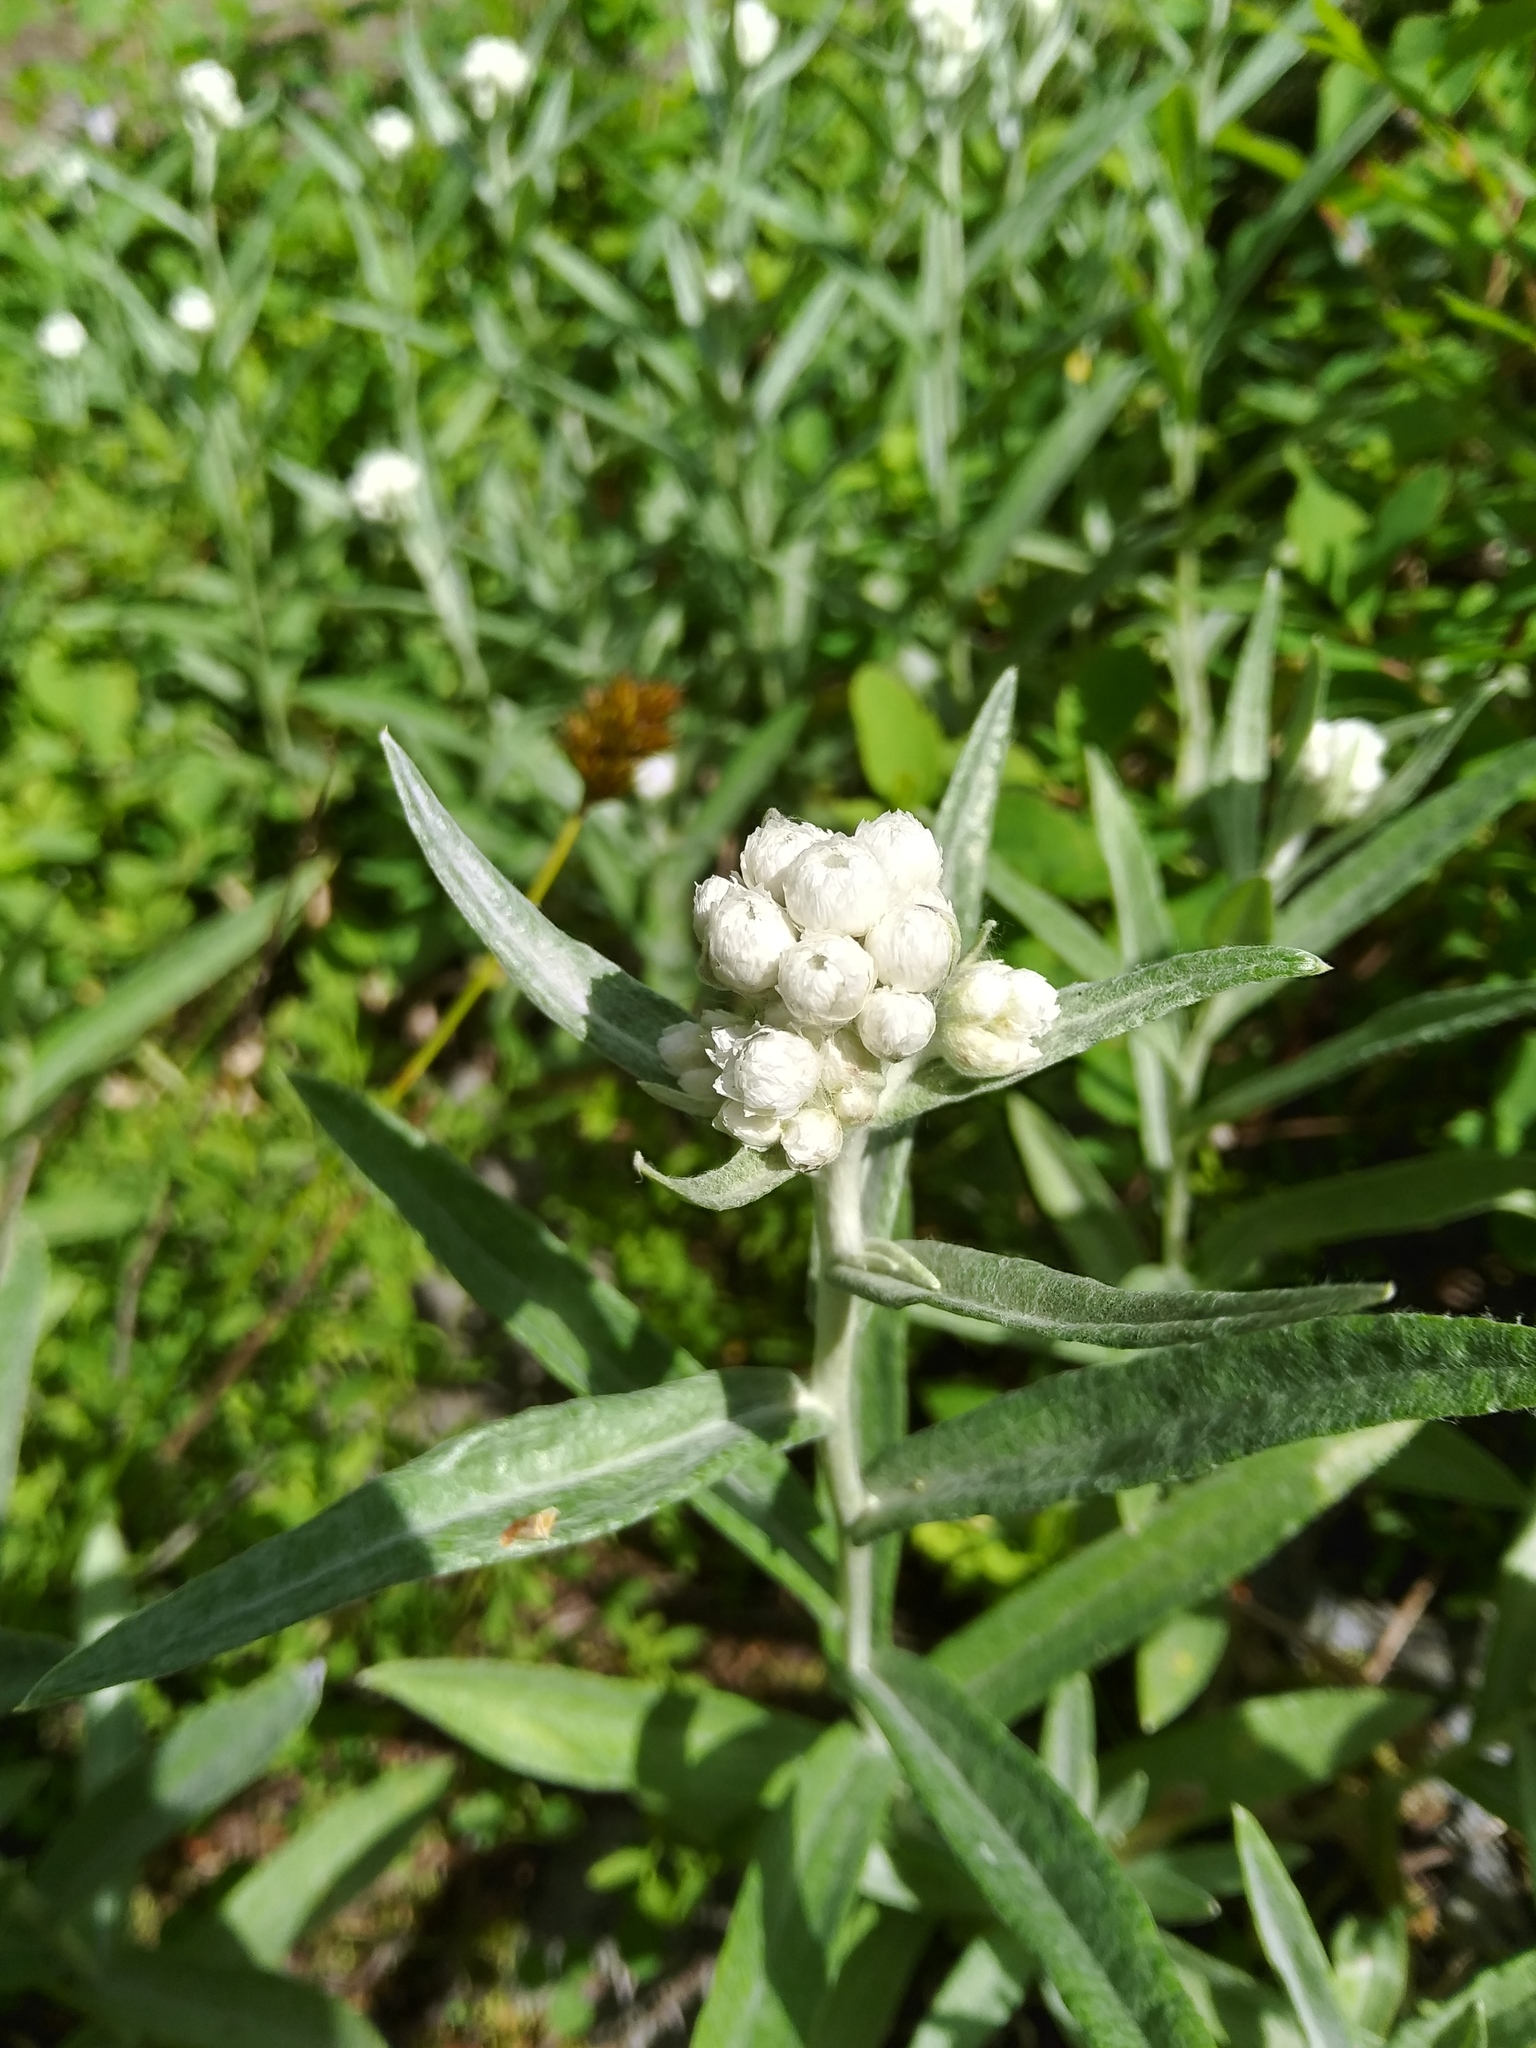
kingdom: Plantae
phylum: Tracheophyta
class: Magnoliopsida
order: Asterales
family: Asteraceae
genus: Anaphalis
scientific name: Anaphalis margaritacea
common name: Pearly everlasting
